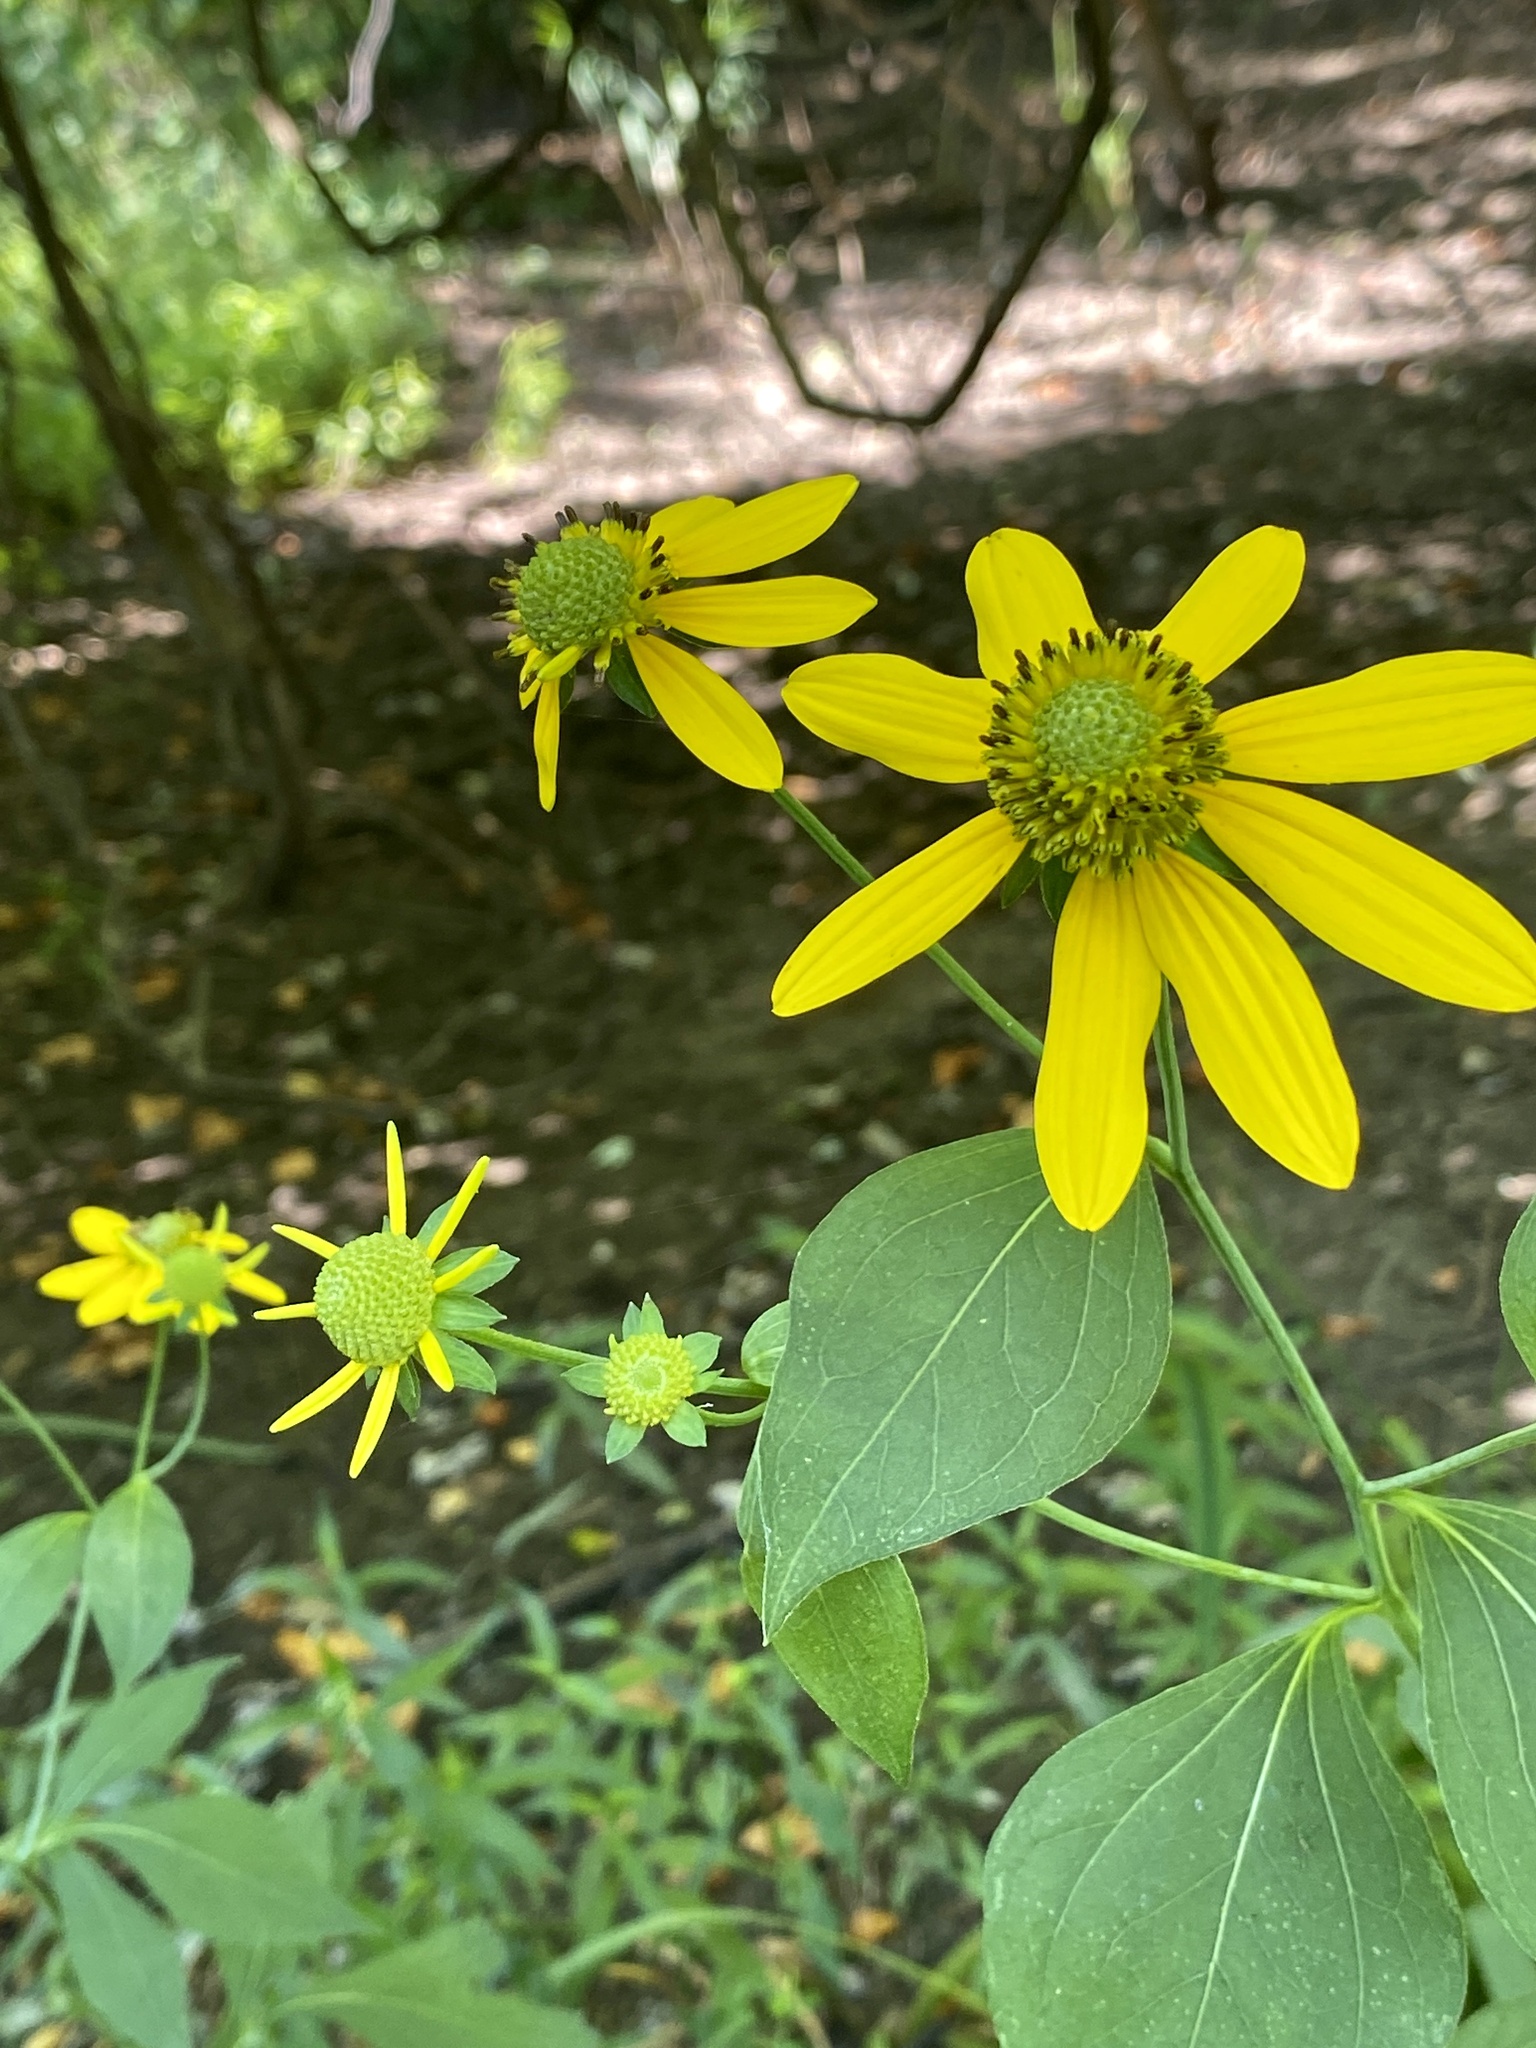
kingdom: Plantae
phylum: Tracheophyta
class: Magnoliopsida
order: Asterales
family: Asteraceae
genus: Rudbeckia
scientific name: Rudbeckia laciniata
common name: Coneflower
